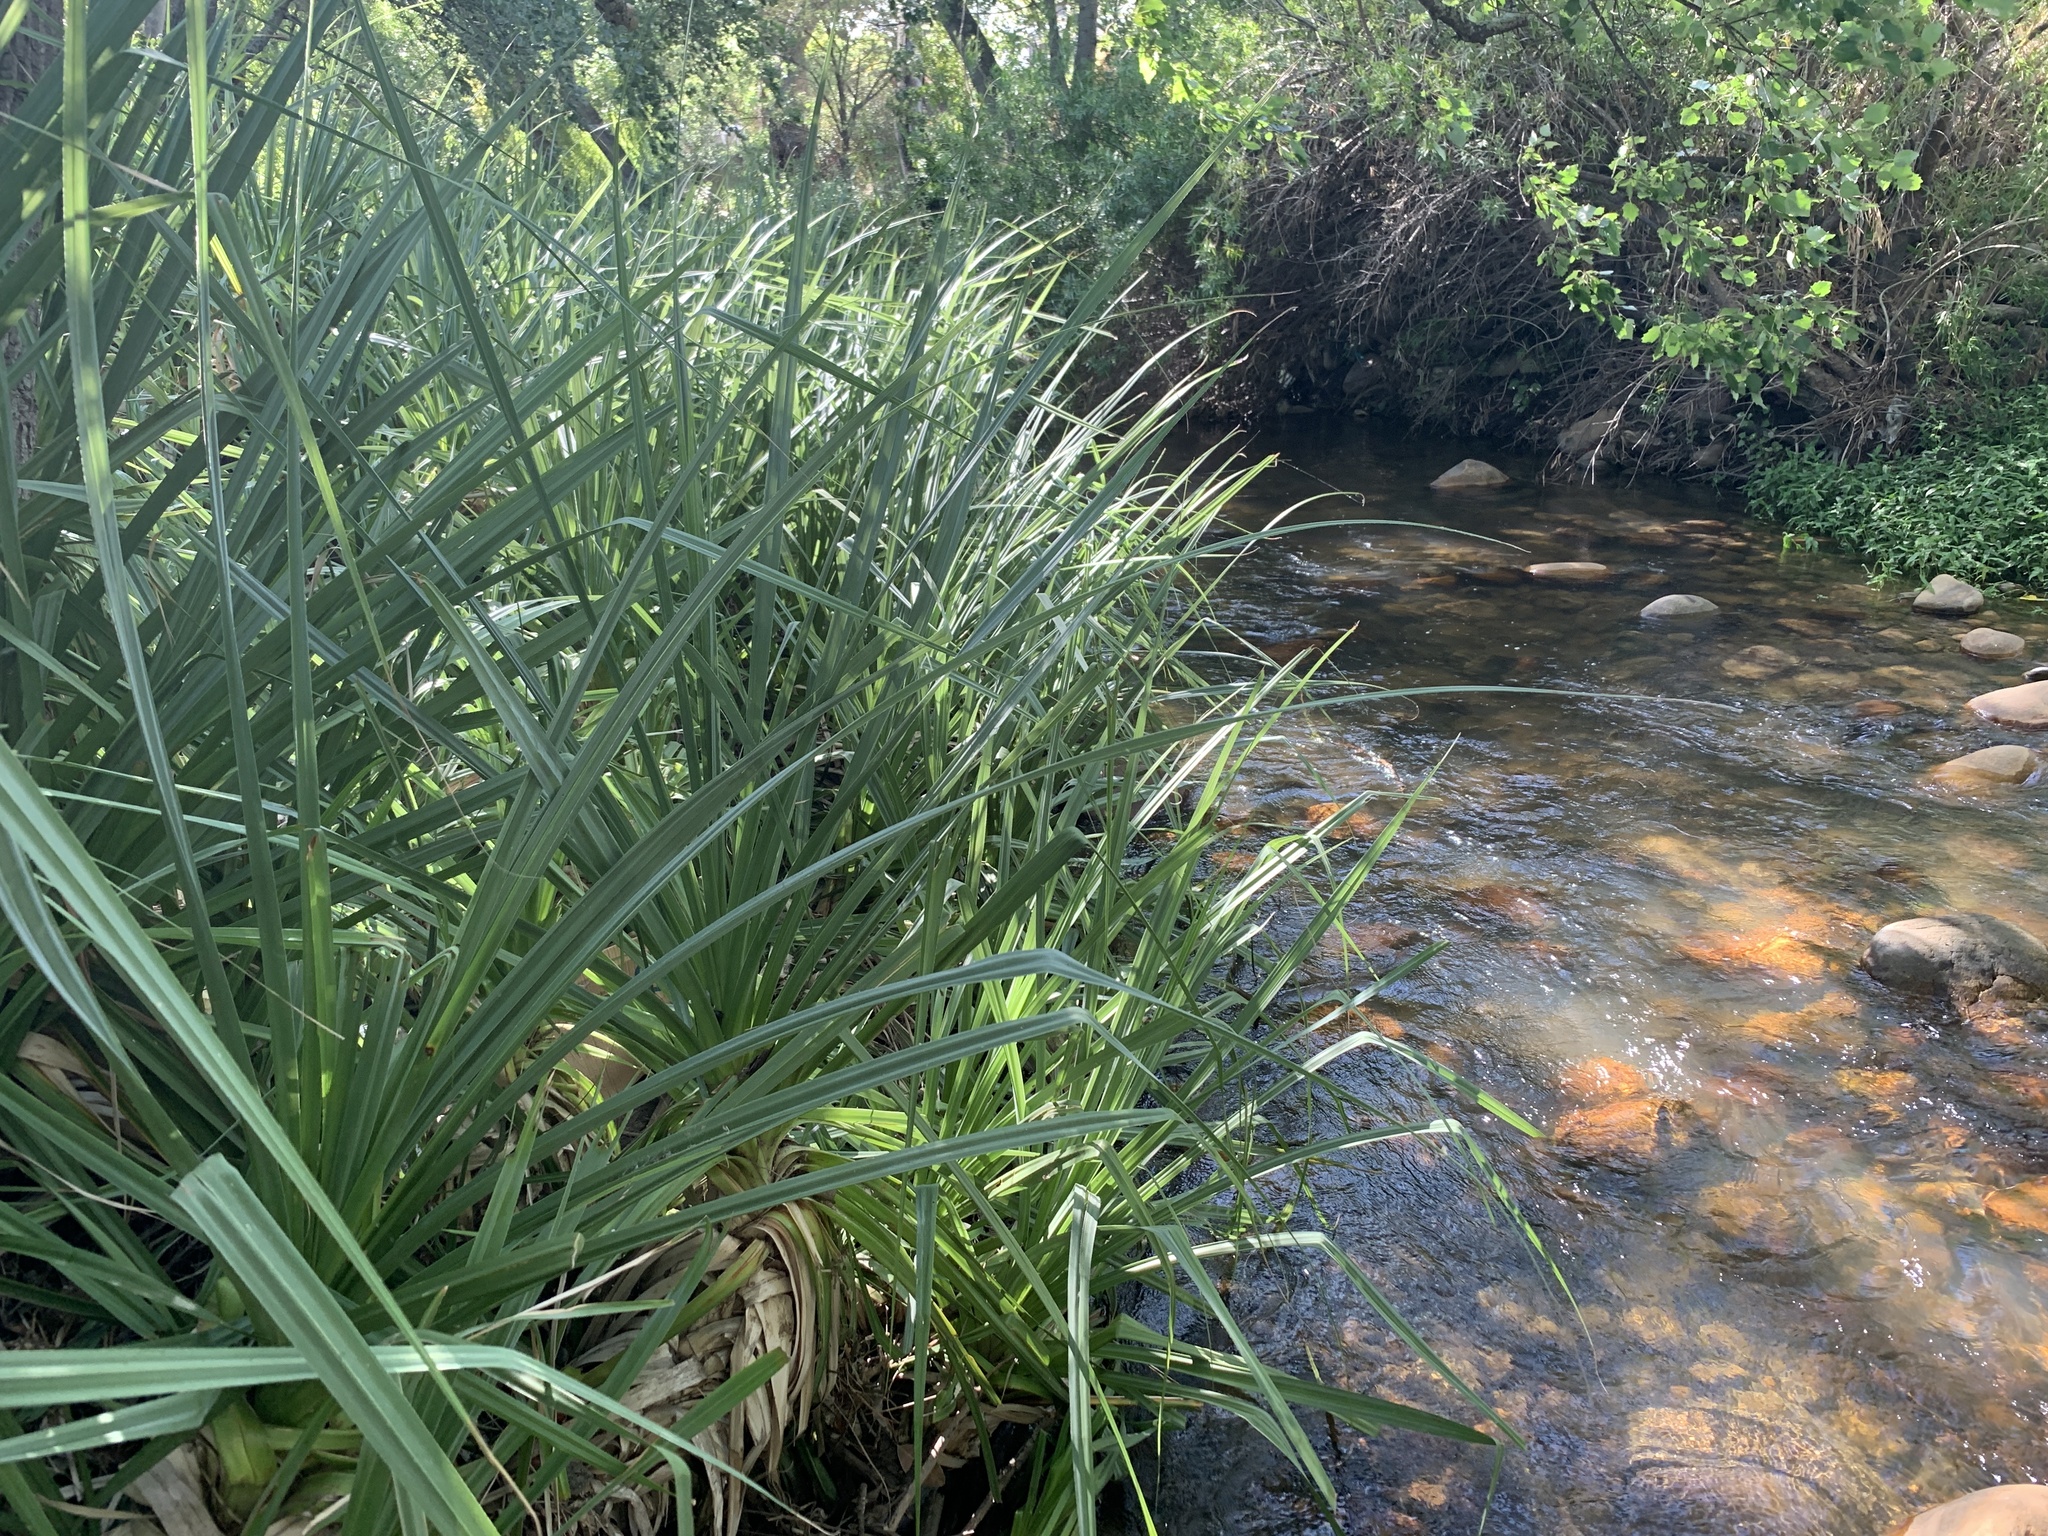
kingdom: Plantae
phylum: Tracheophyta
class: Liliopsida
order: Poales
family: Thurniaceae
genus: Prionium
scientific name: Prionium serratum
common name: Palmiet
